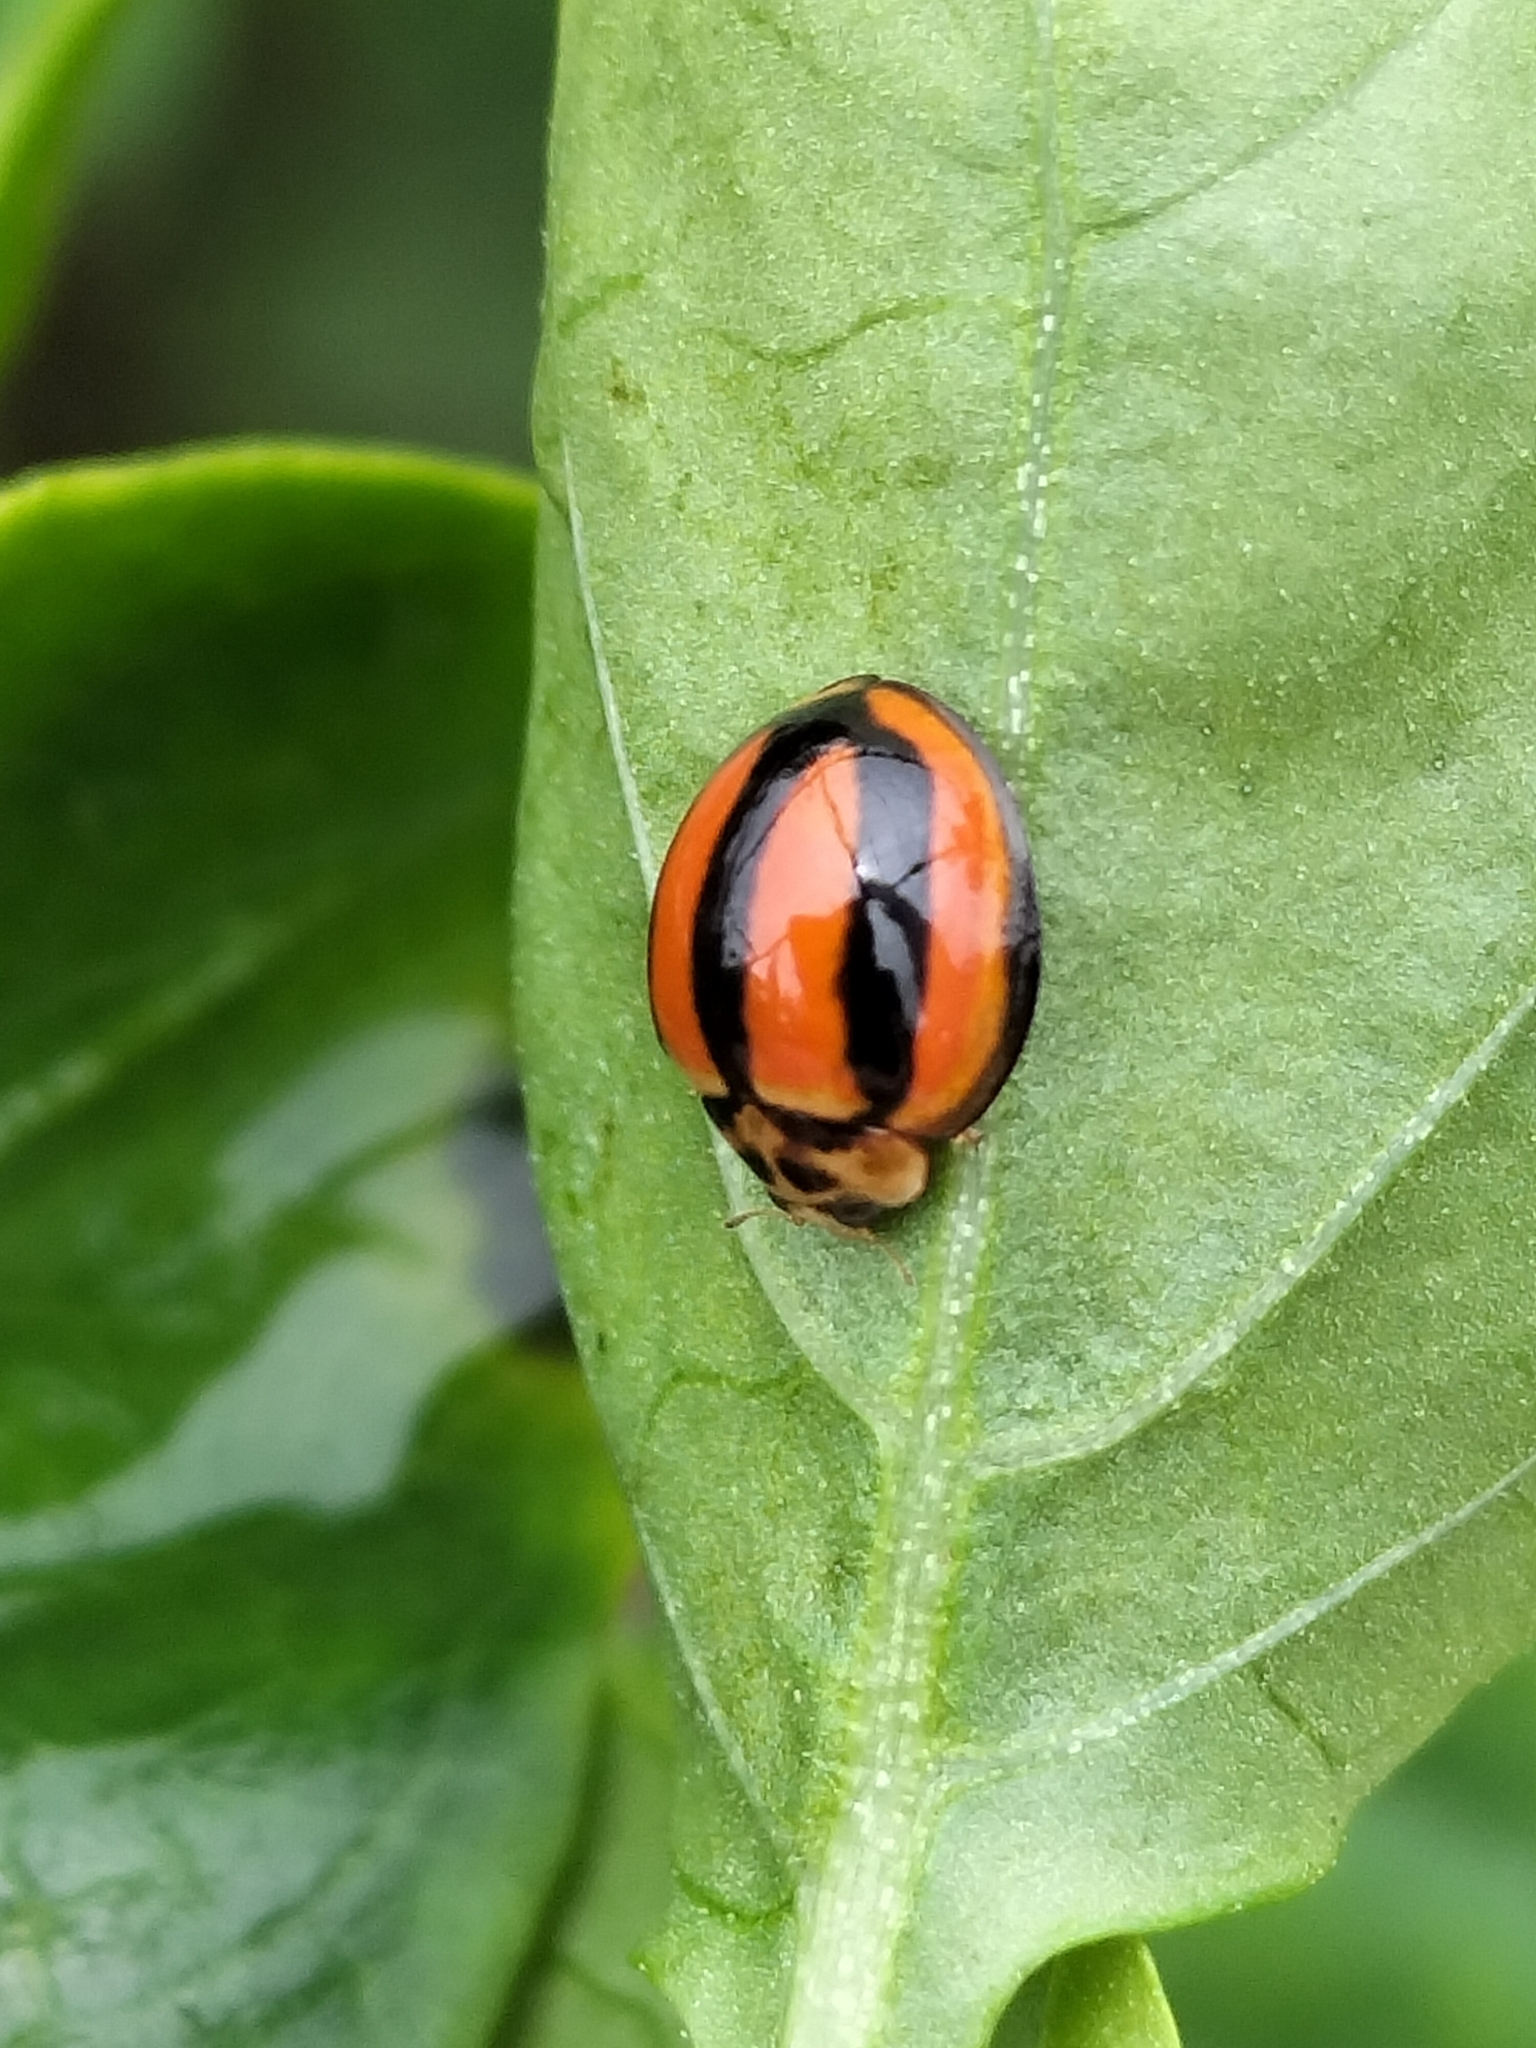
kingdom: Animalia
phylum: Arthropoda
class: Insecta
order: Coleoptera
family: Coccinellidae
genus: Coelophora
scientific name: Coelophora inaequalis
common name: Common australian lady beetle
